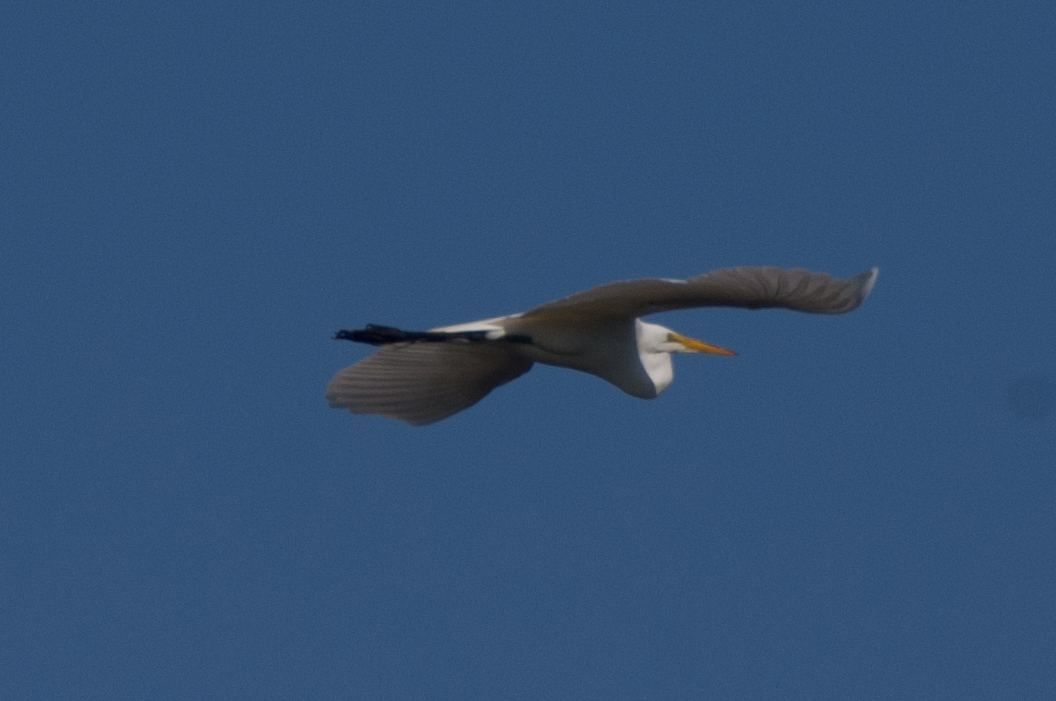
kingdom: Animalia
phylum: Chordata
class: Aves
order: Pelecaniformes
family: Ardeidae
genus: Ardea
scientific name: Ardea alba
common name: Great egret
